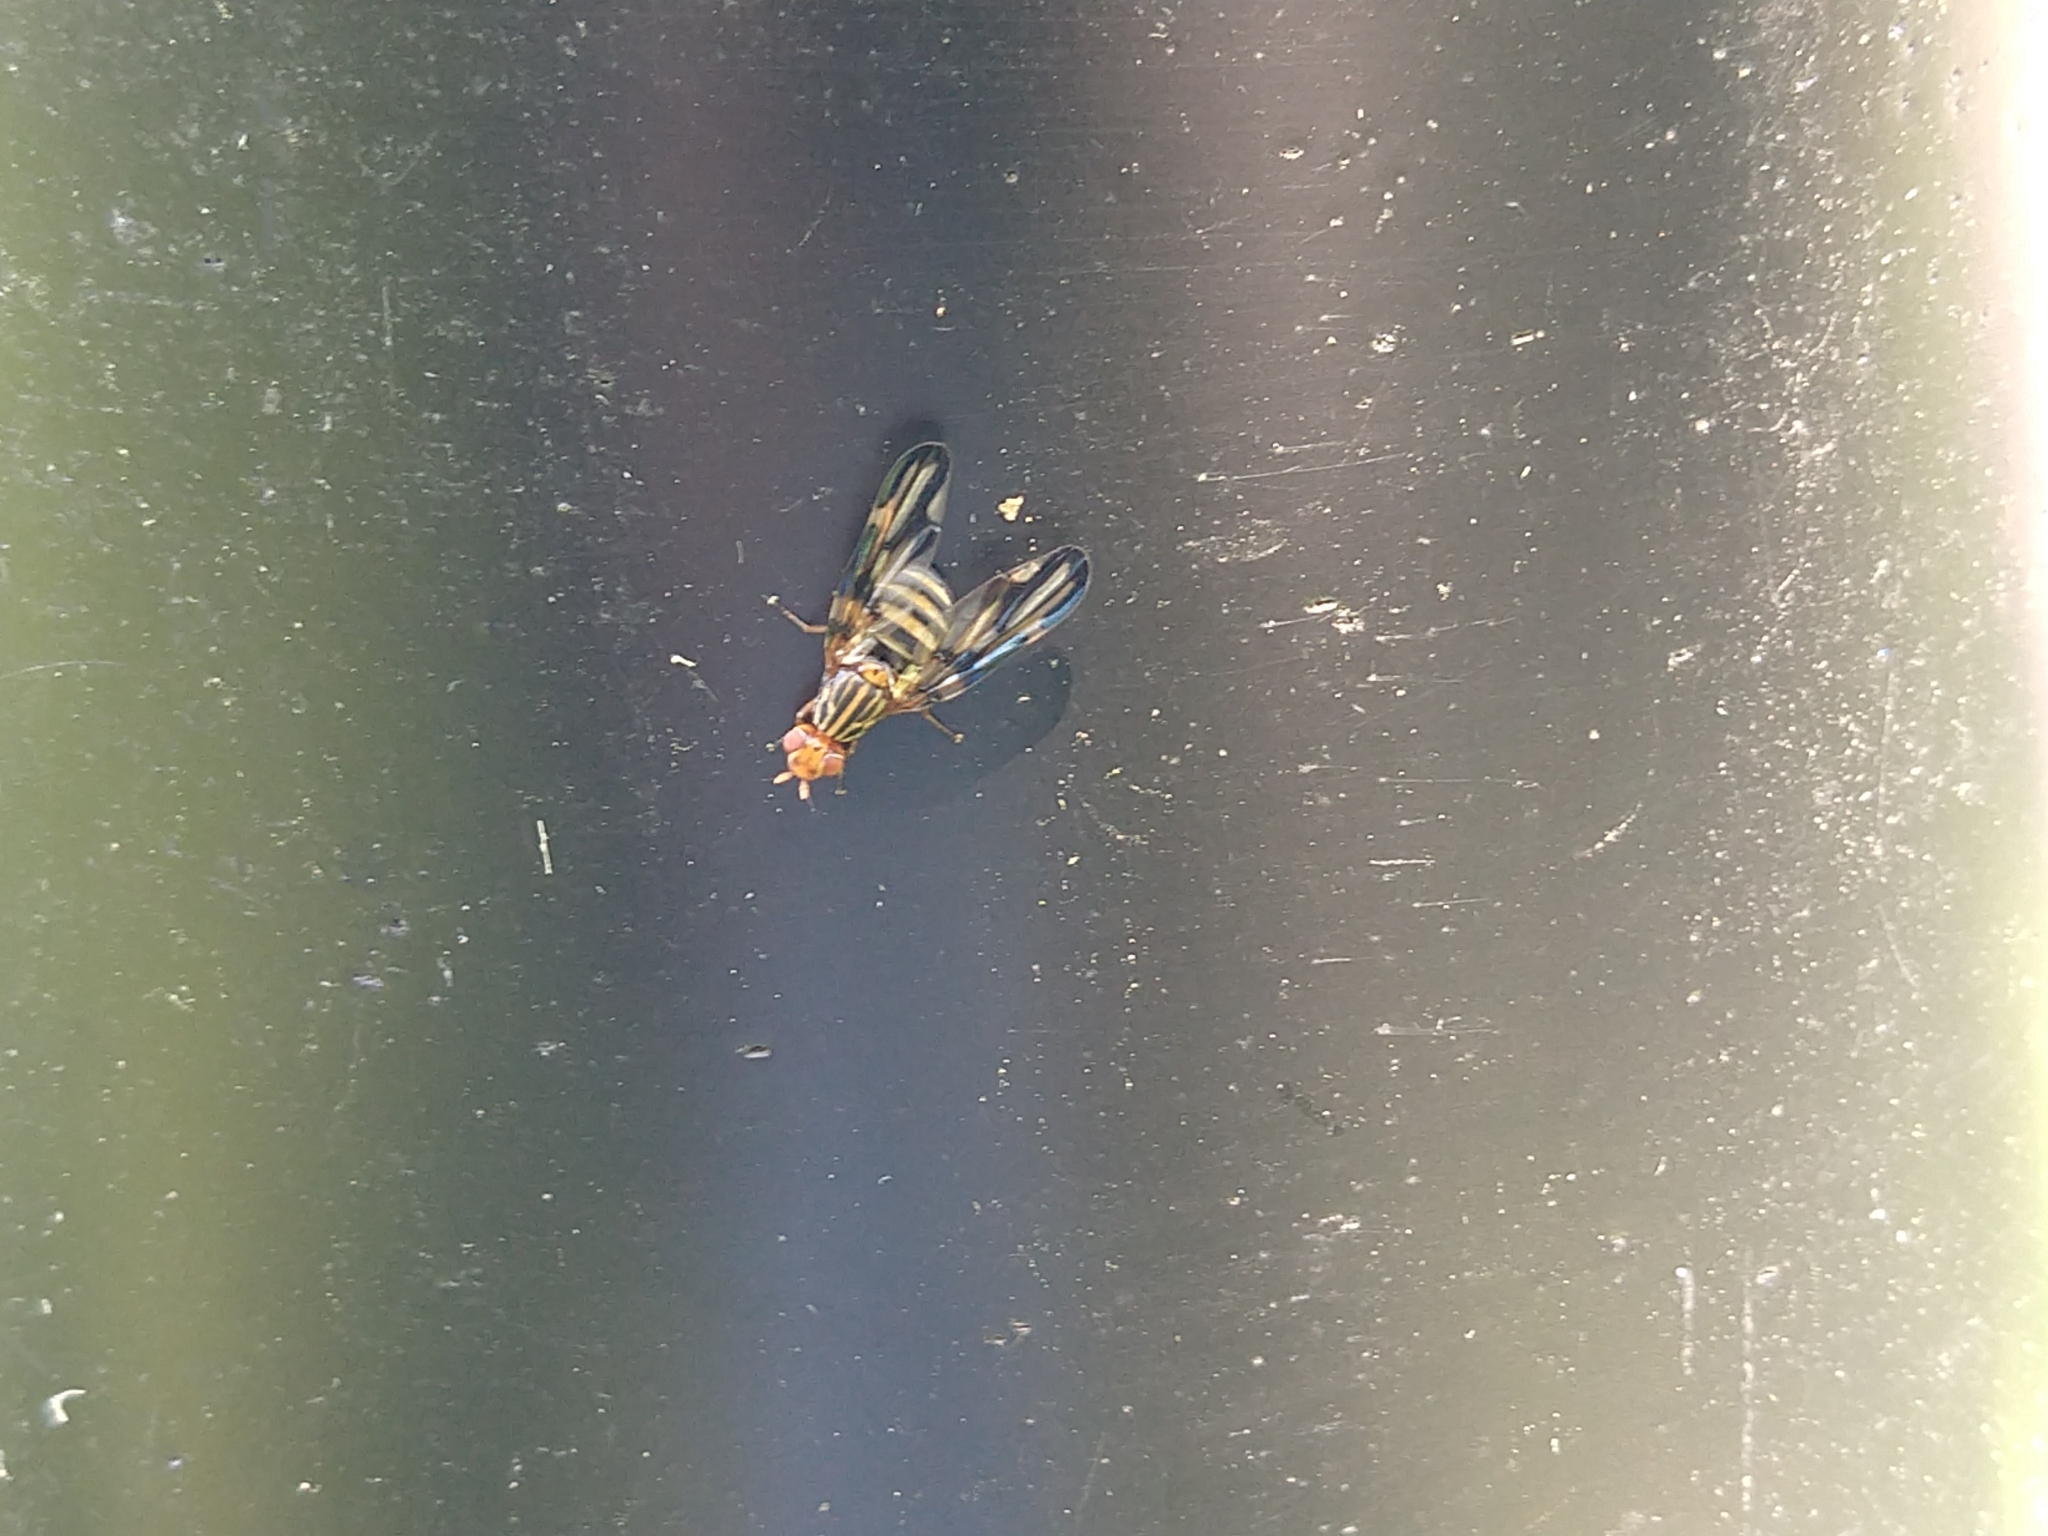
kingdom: Animalia
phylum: Arthropoda
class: Insecta
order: Diptera
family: Ulidiidae
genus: Idana
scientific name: Idana marginata
